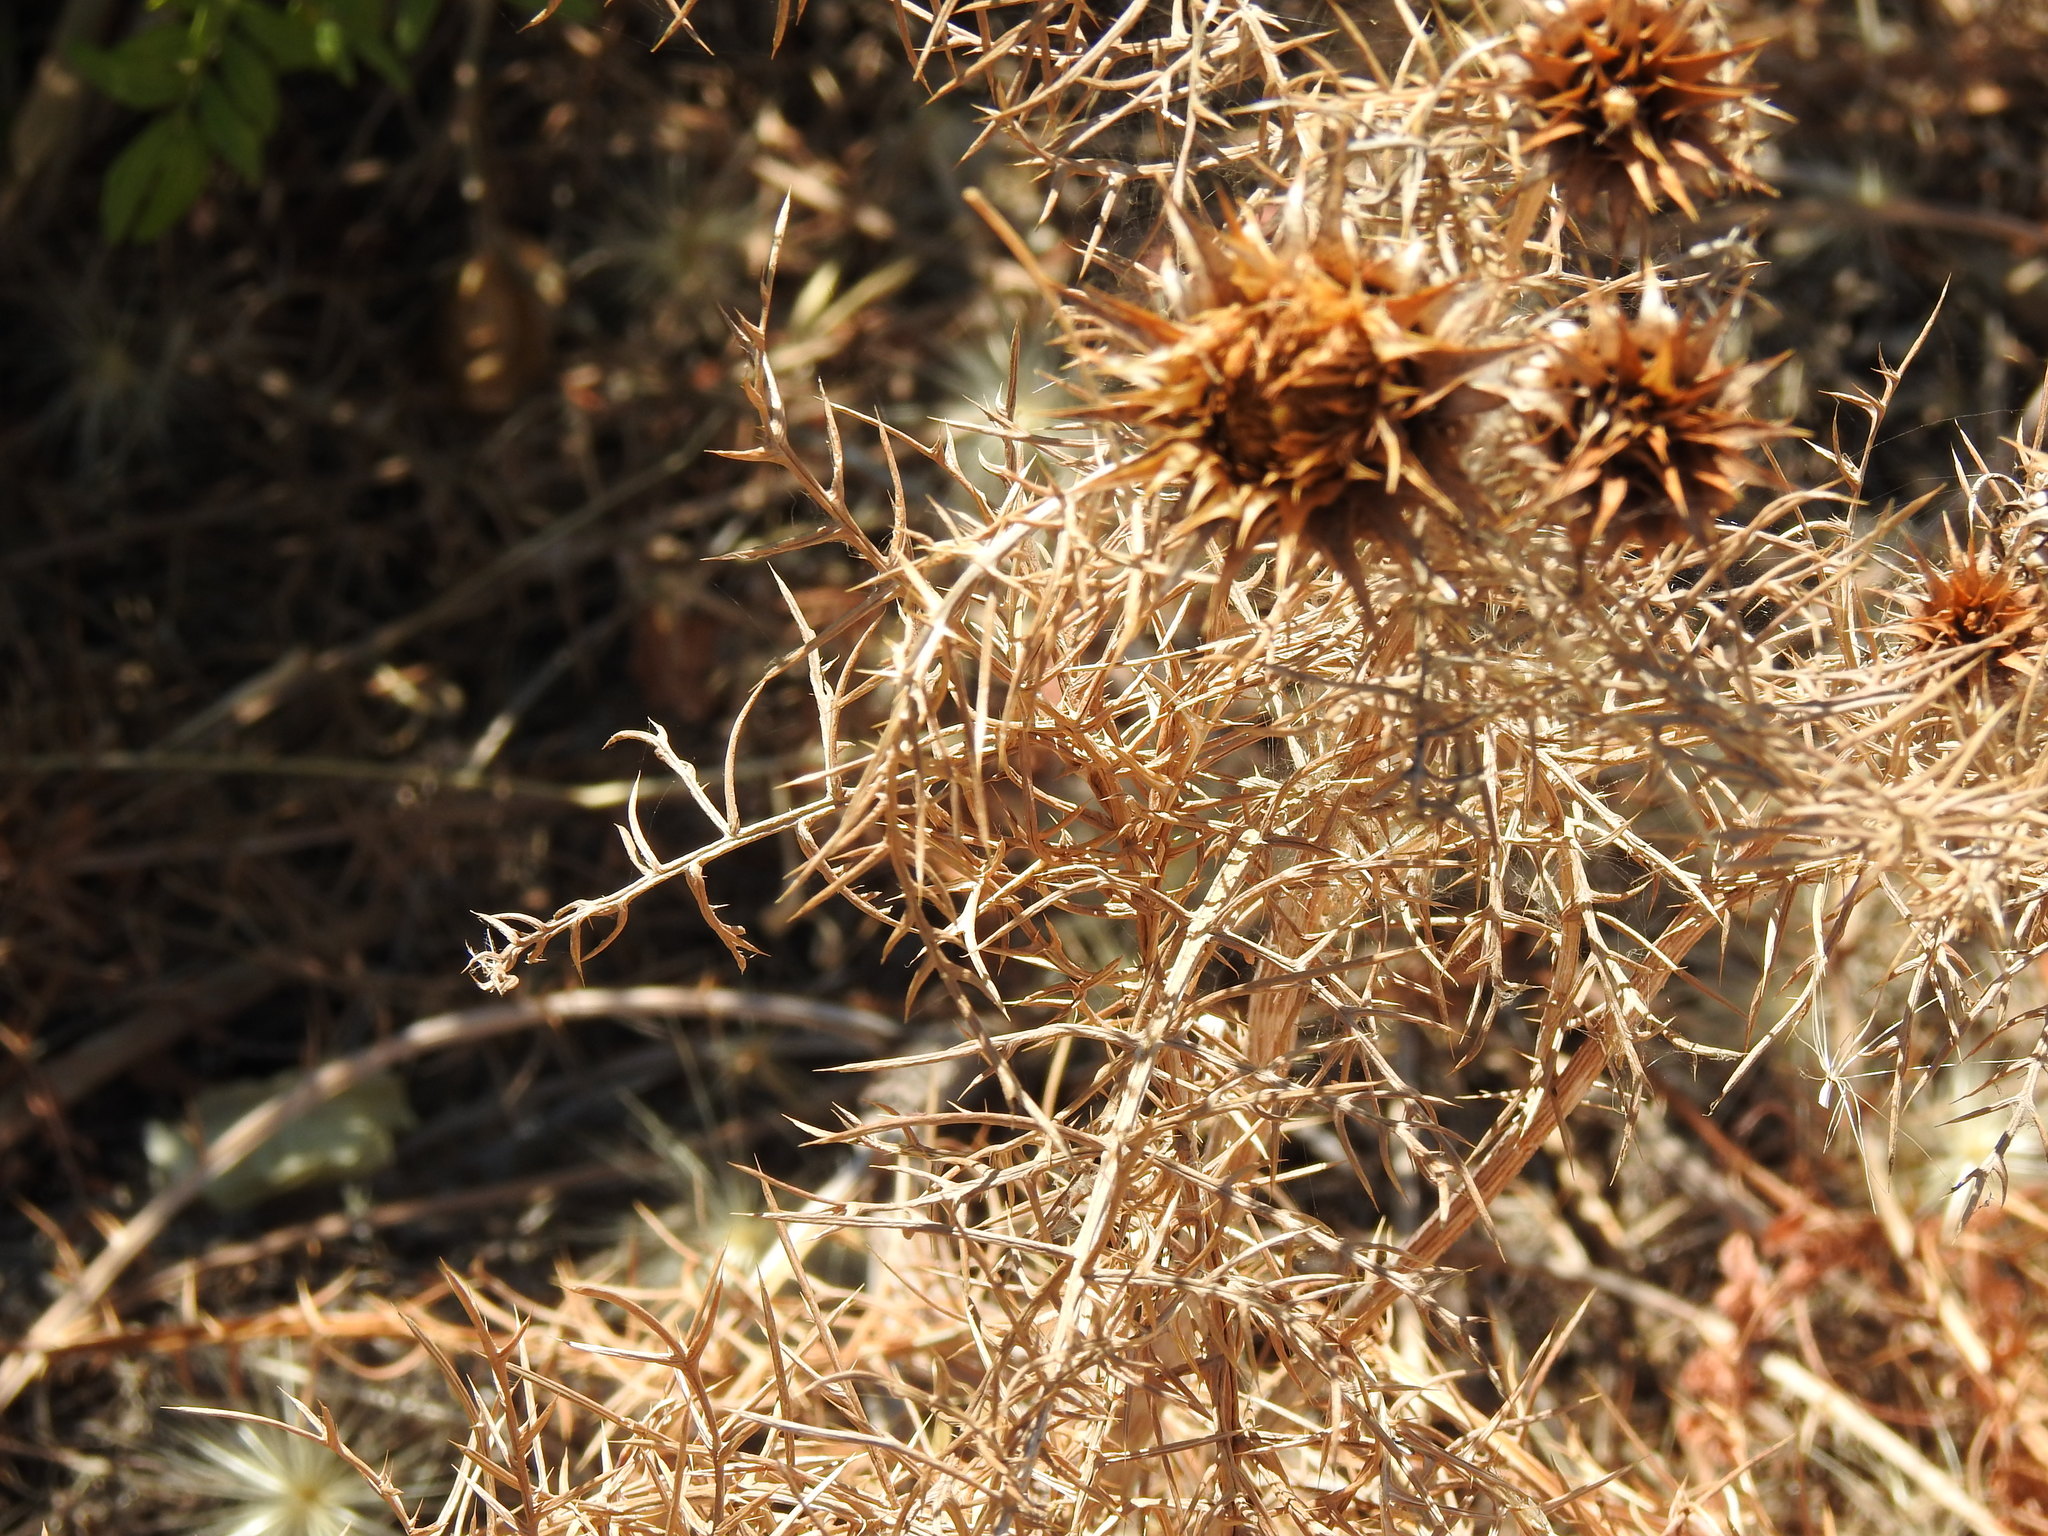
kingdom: Plantae
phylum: Tracheophyta
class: Magnoliopsida
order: Asterales
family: Asteraceae
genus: Cynara
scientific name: Cynara humilis
